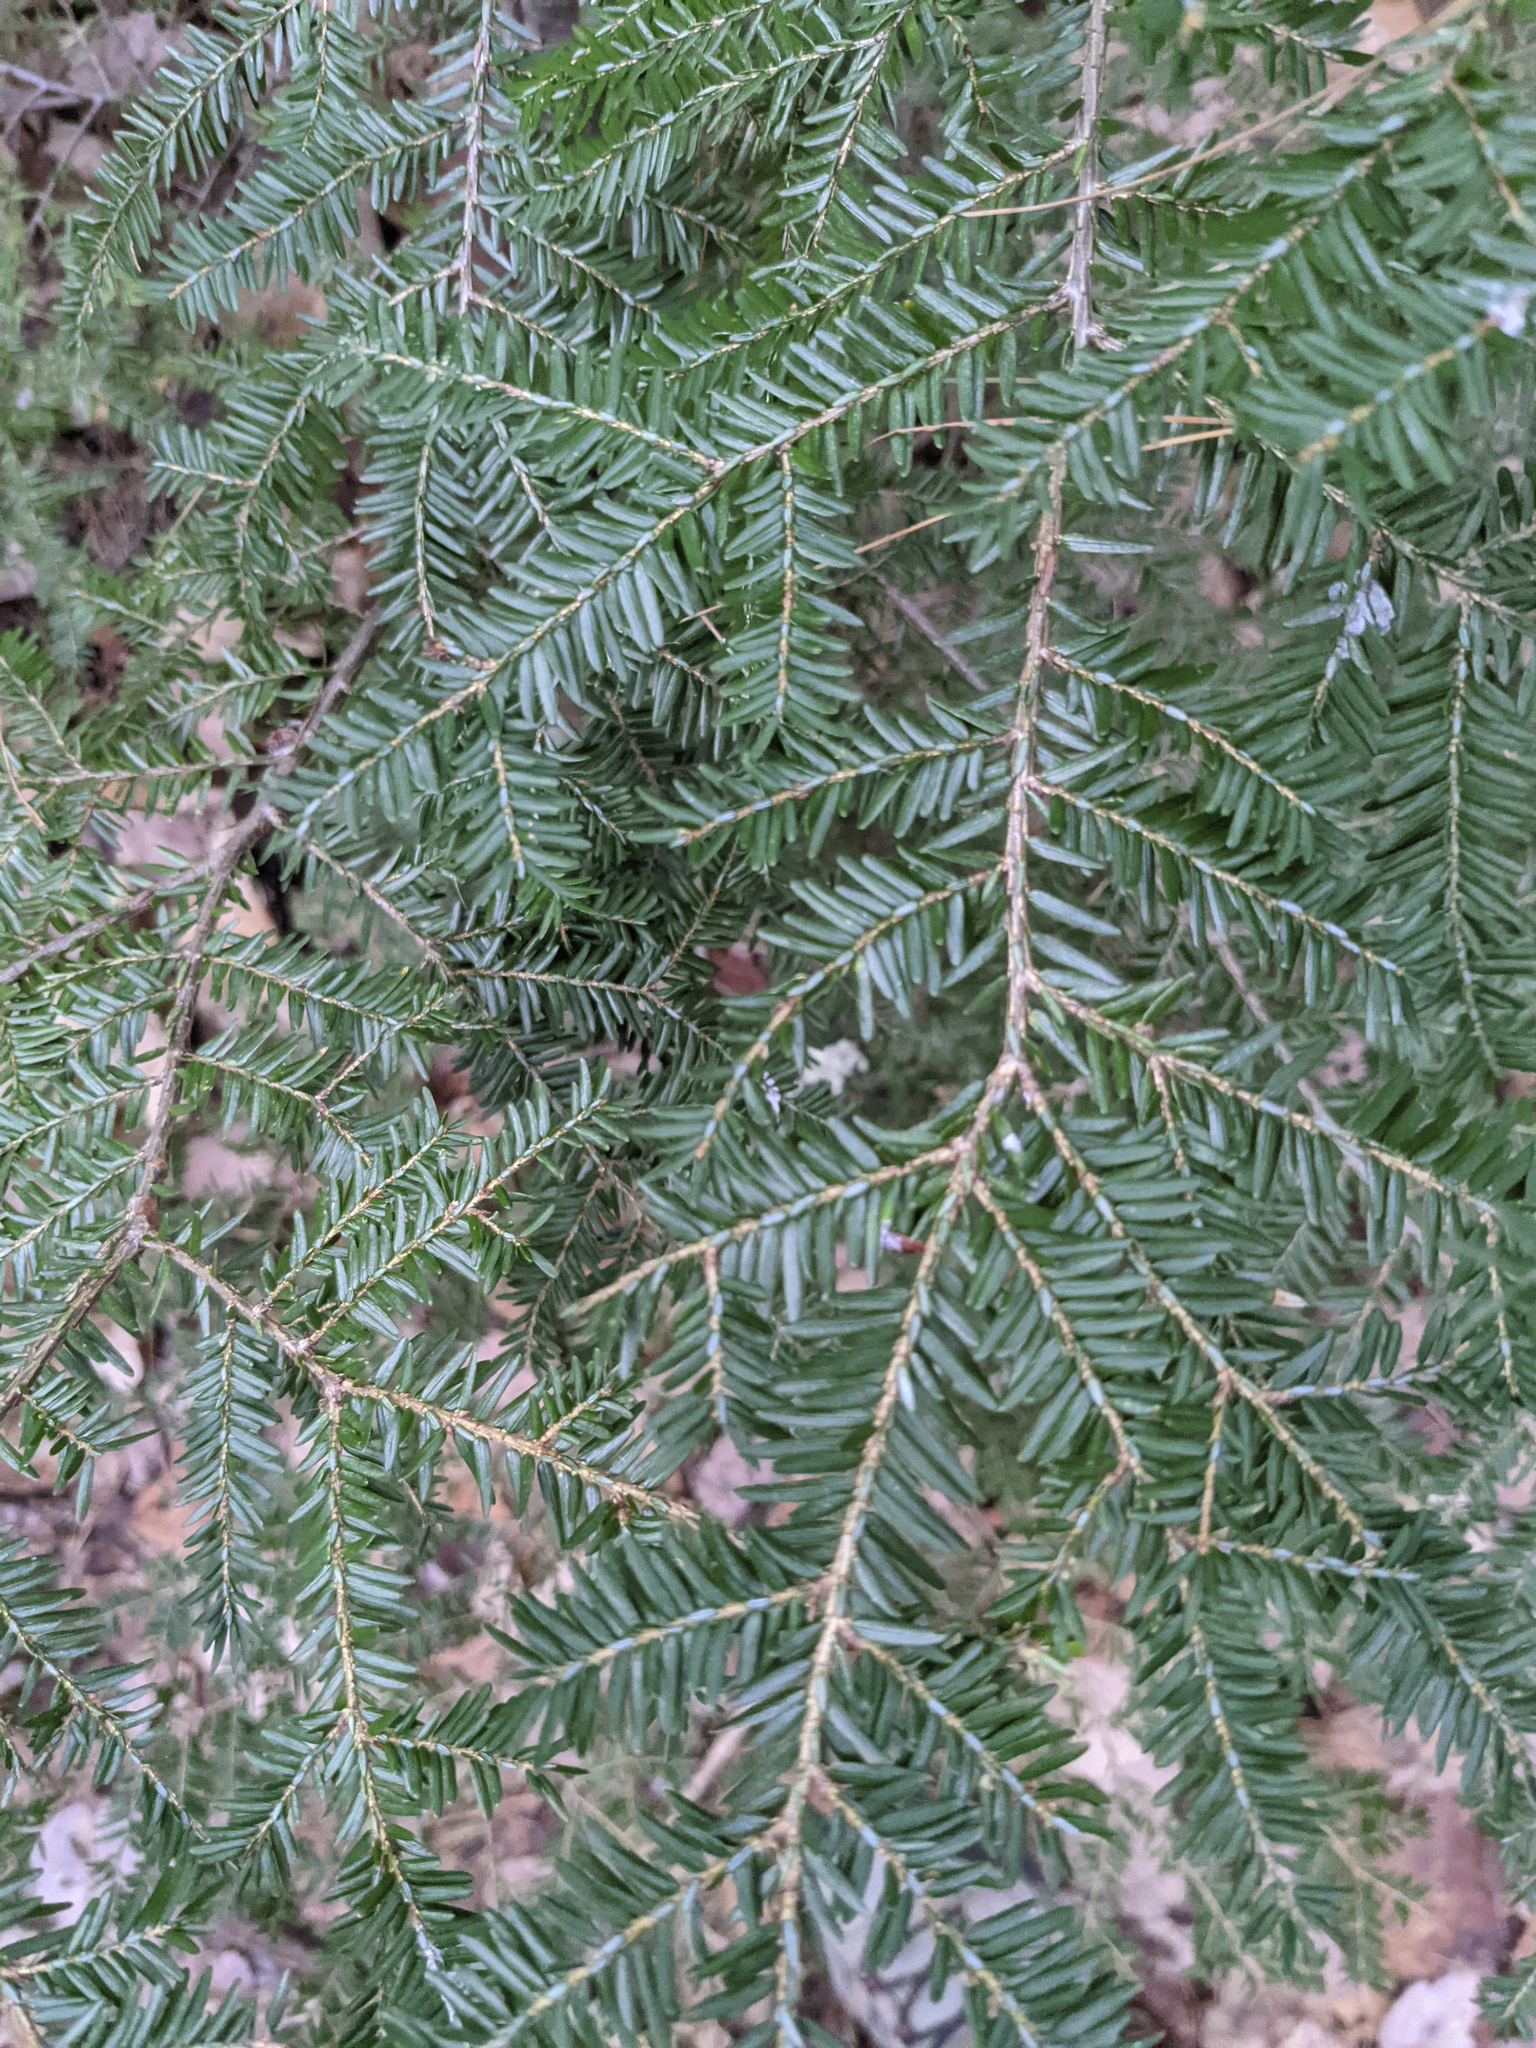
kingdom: Plantae
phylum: Tracheophyta
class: Pinopsida
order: Pinales
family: Pinaceae
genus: Tsuga
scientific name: Tsuga canadensis
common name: Eastern hemlock
